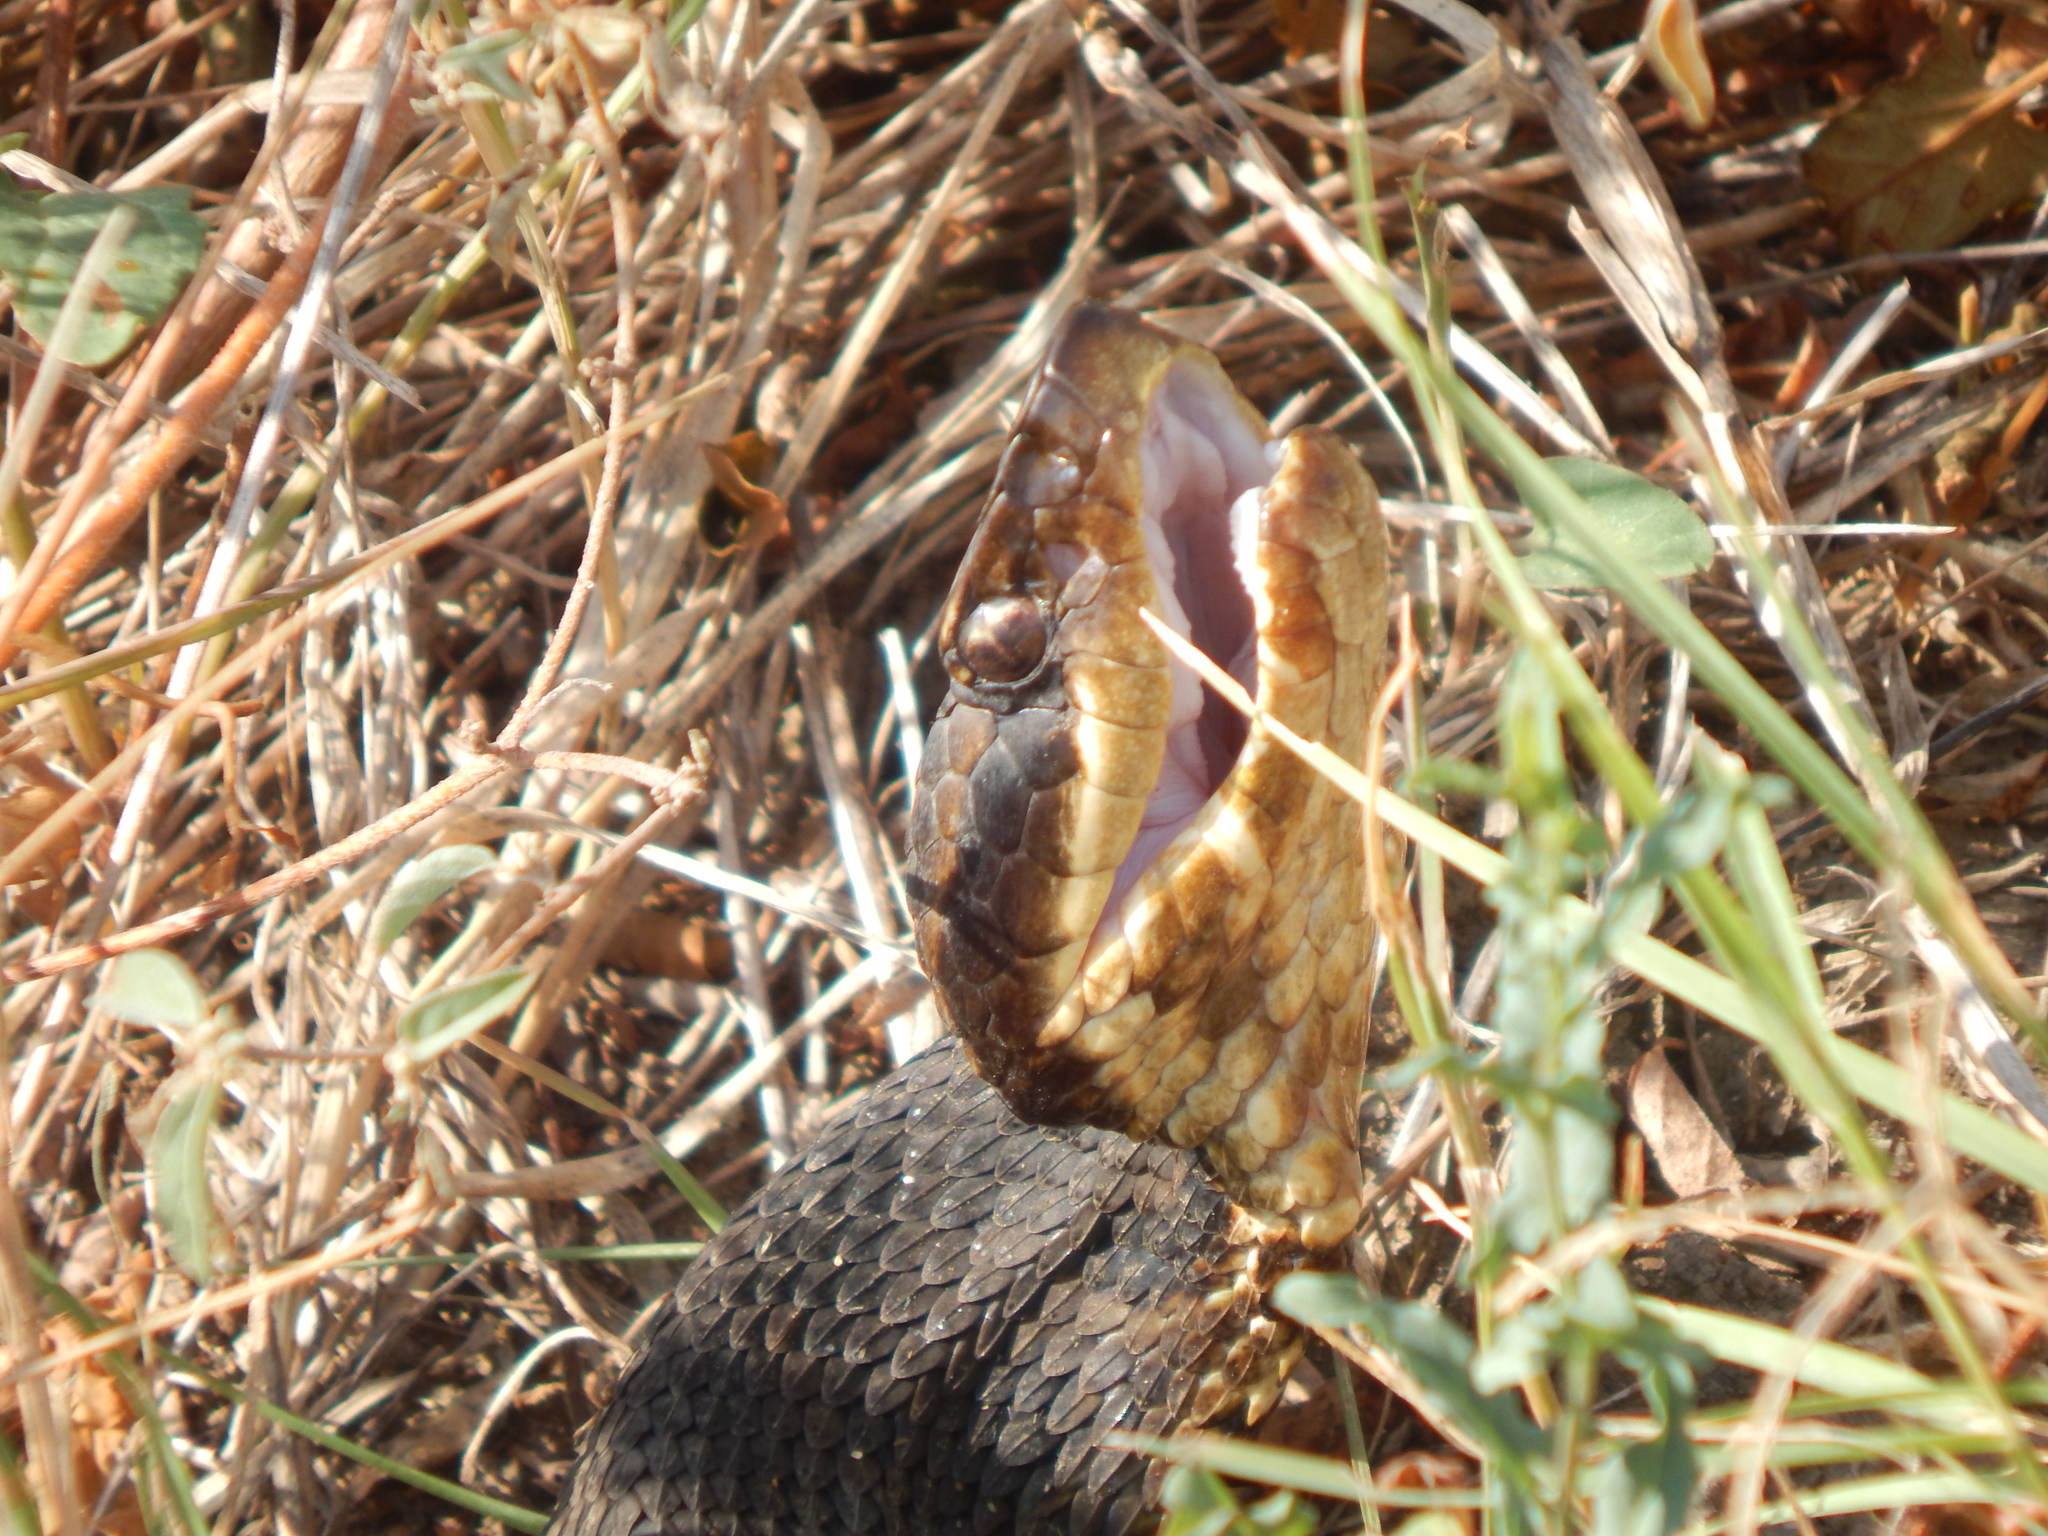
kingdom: Animalia
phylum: Chordata
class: Squamata
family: Viperidae
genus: Agkistrodon
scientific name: Agkistrodon piscivorus
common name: Cottonmouth
